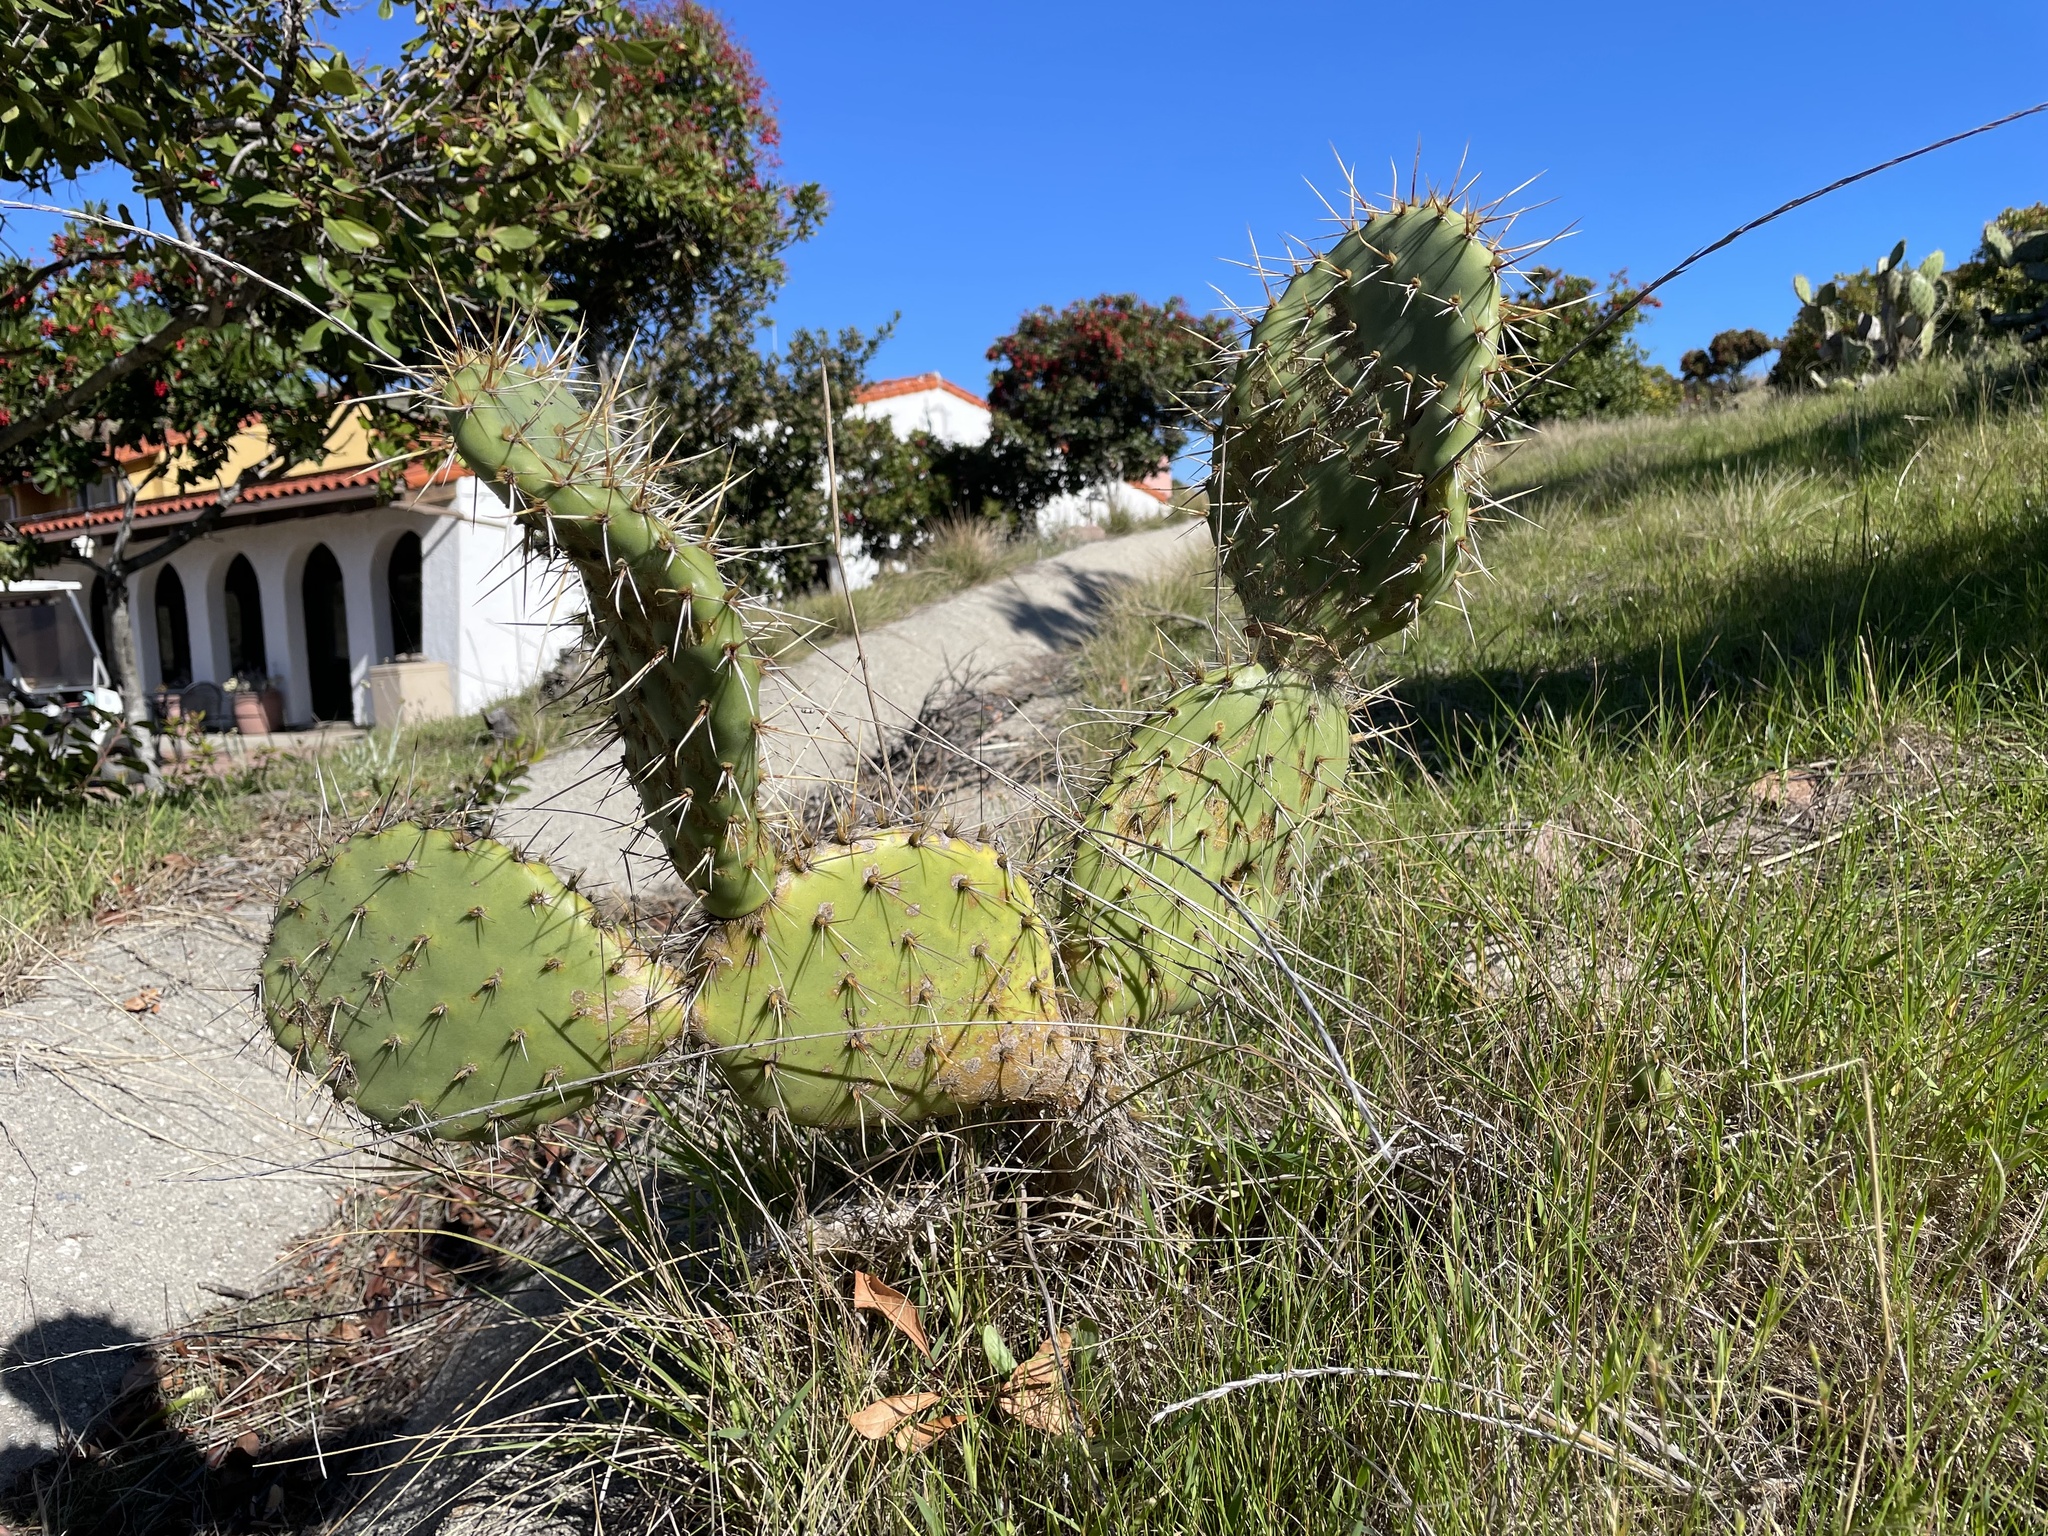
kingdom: Plantae
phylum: Tracheophyta
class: Magnoliopsida
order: Caryophyllales
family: Cactaceae
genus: Opuntia
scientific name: Opuntia littoralis
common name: Coastal prickly-pear
